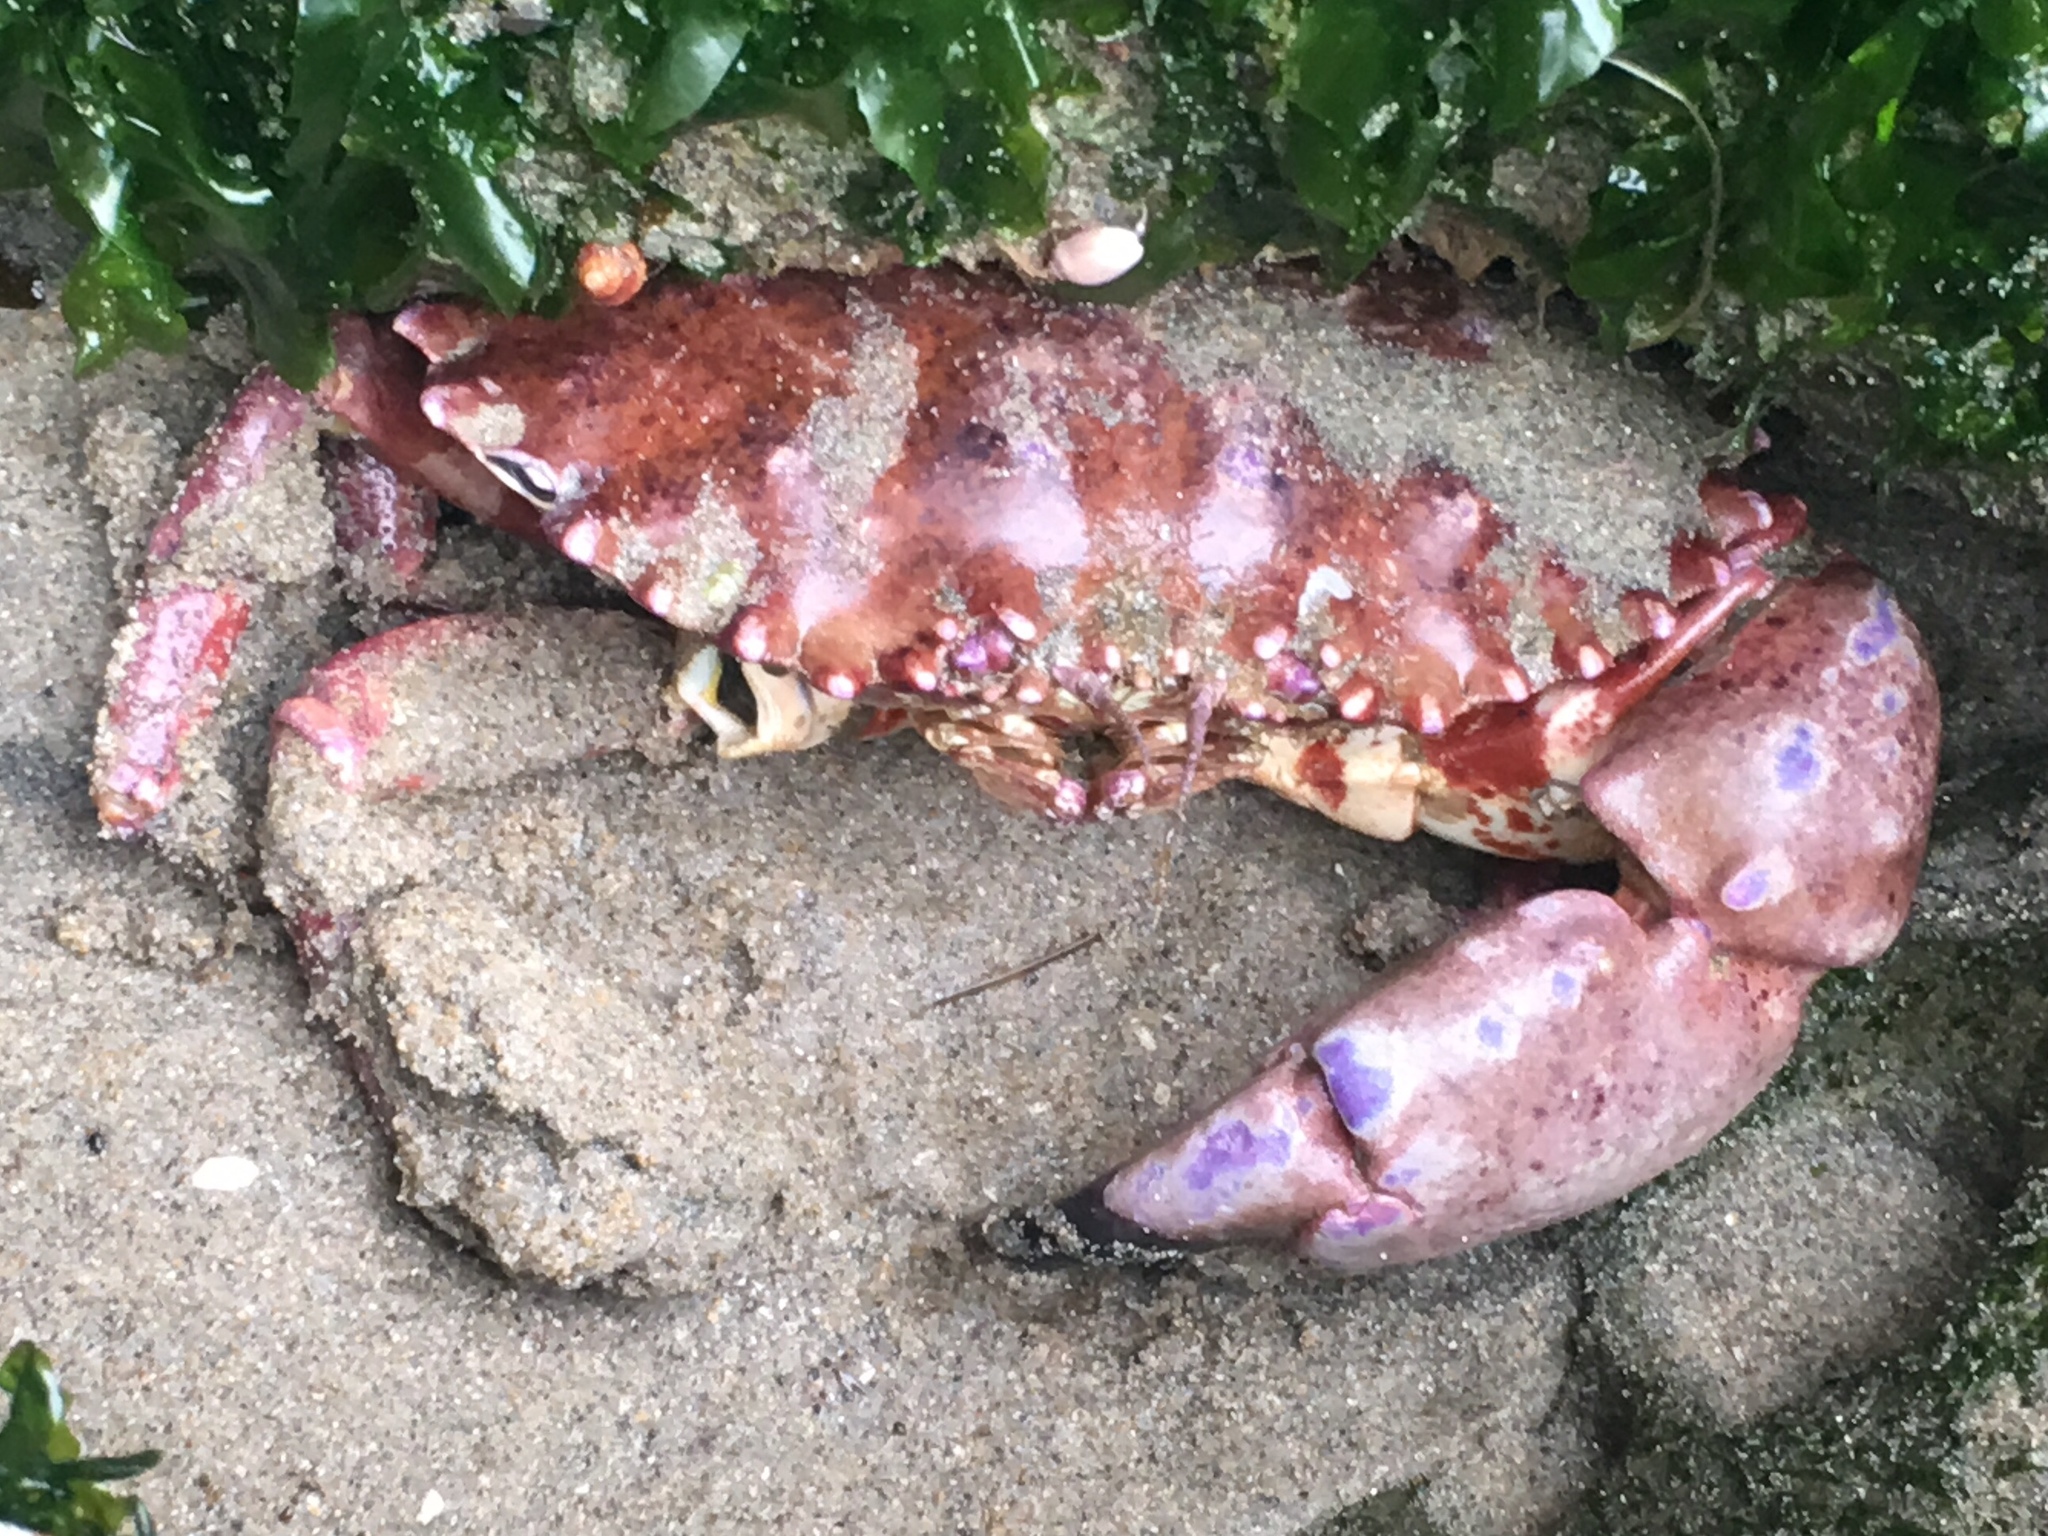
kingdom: Animalia
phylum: Arthropoda
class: Malacostraca
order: Decapoda
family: Cancridae
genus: Romaleon
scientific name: Romaleon antennarium
